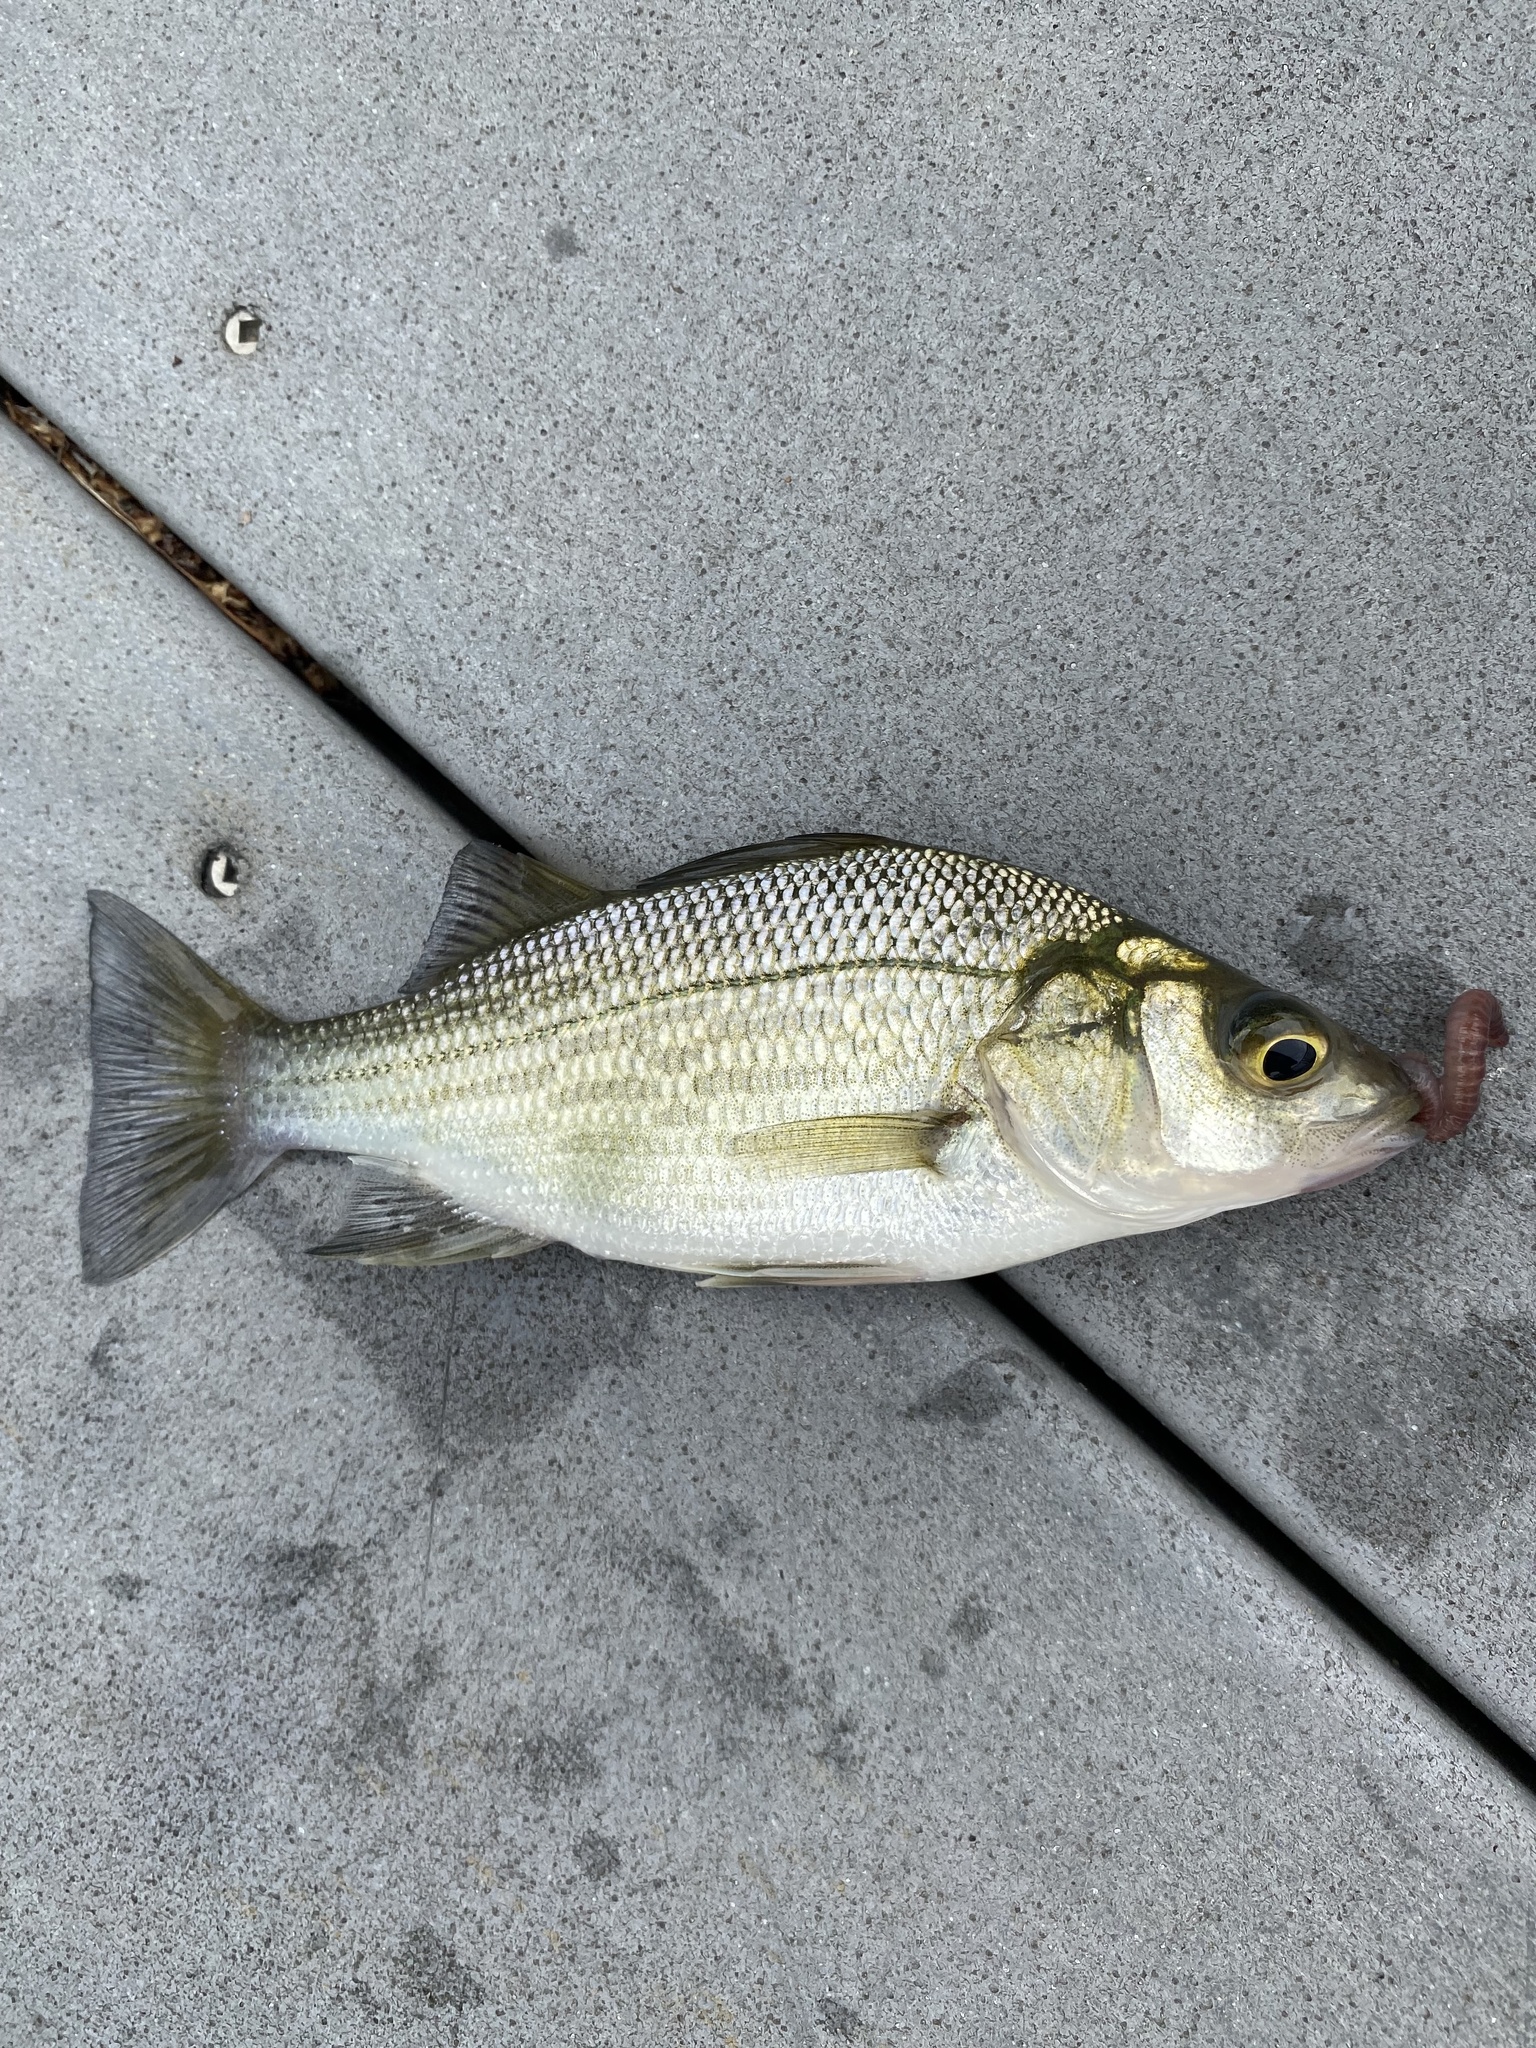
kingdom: Animalia
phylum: Chordata
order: Perciformes
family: Moronidae
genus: Morone
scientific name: Morone americana
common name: White perch
